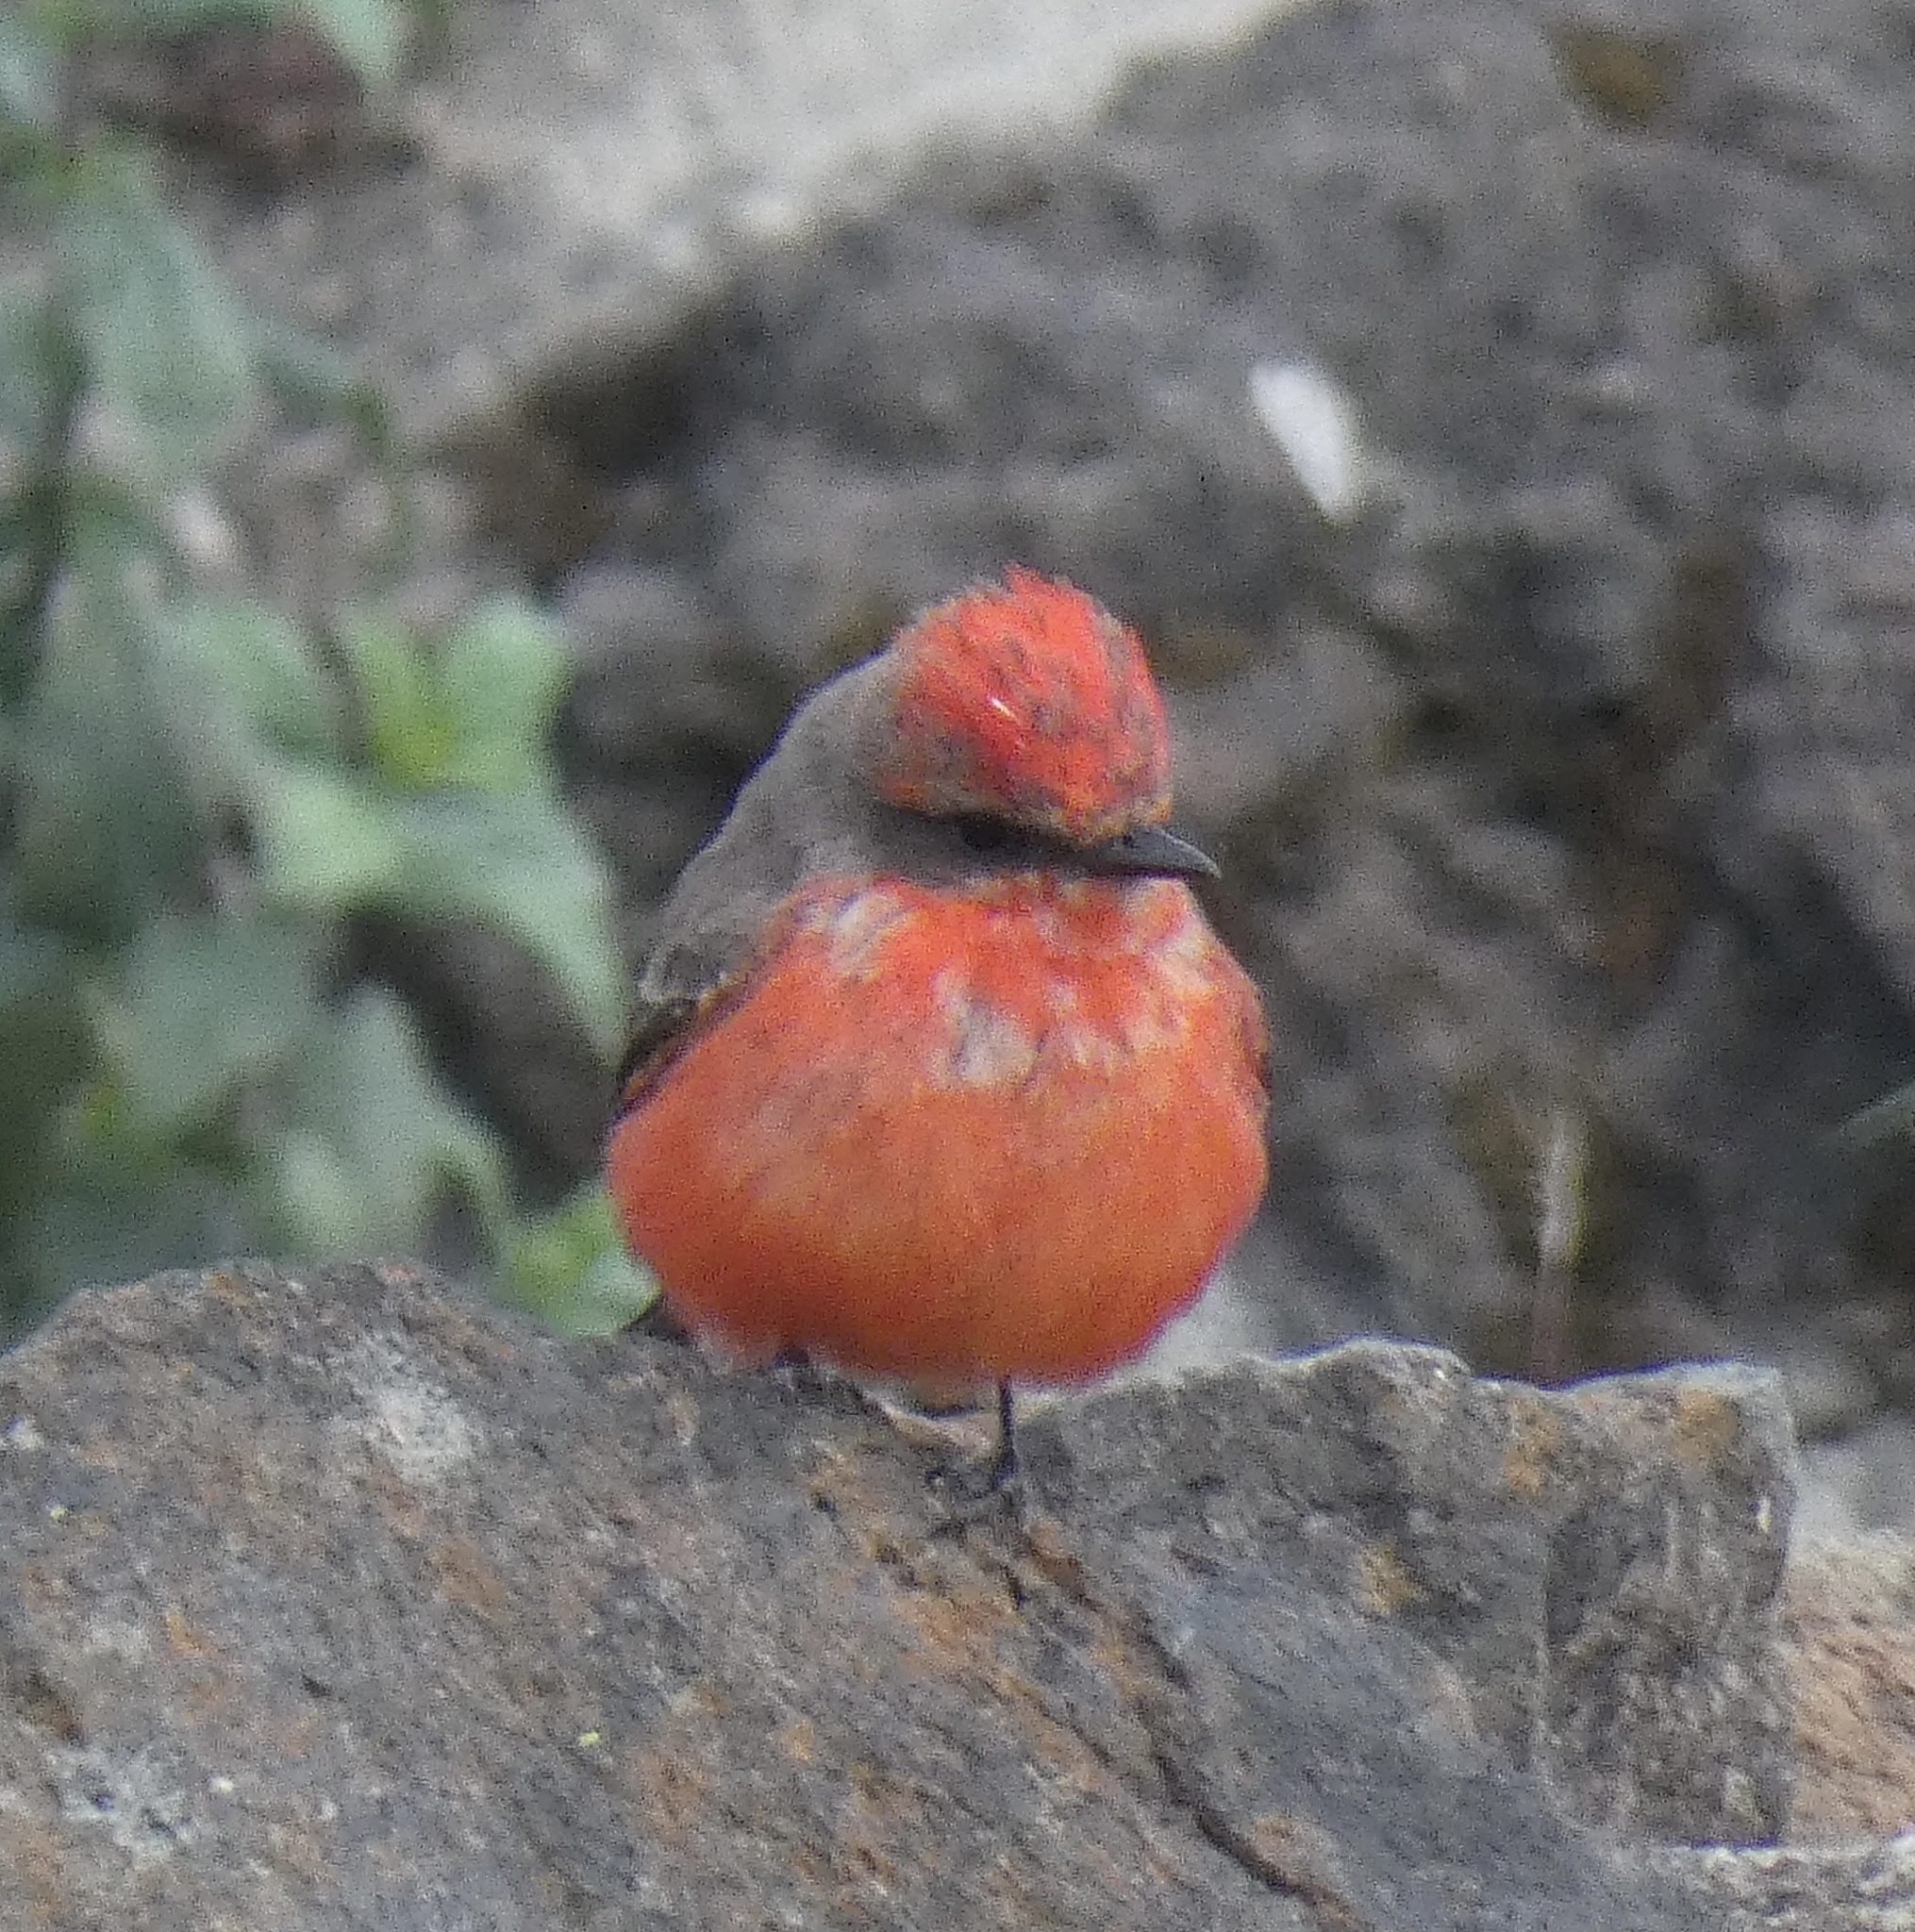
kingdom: Animalia
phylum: Chordata
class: Aves
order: Passeriformes
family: Tyrannidae
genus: Pyrocephalus
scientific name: Pyrocephalus rubinus
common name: Vermilion flycatcher
